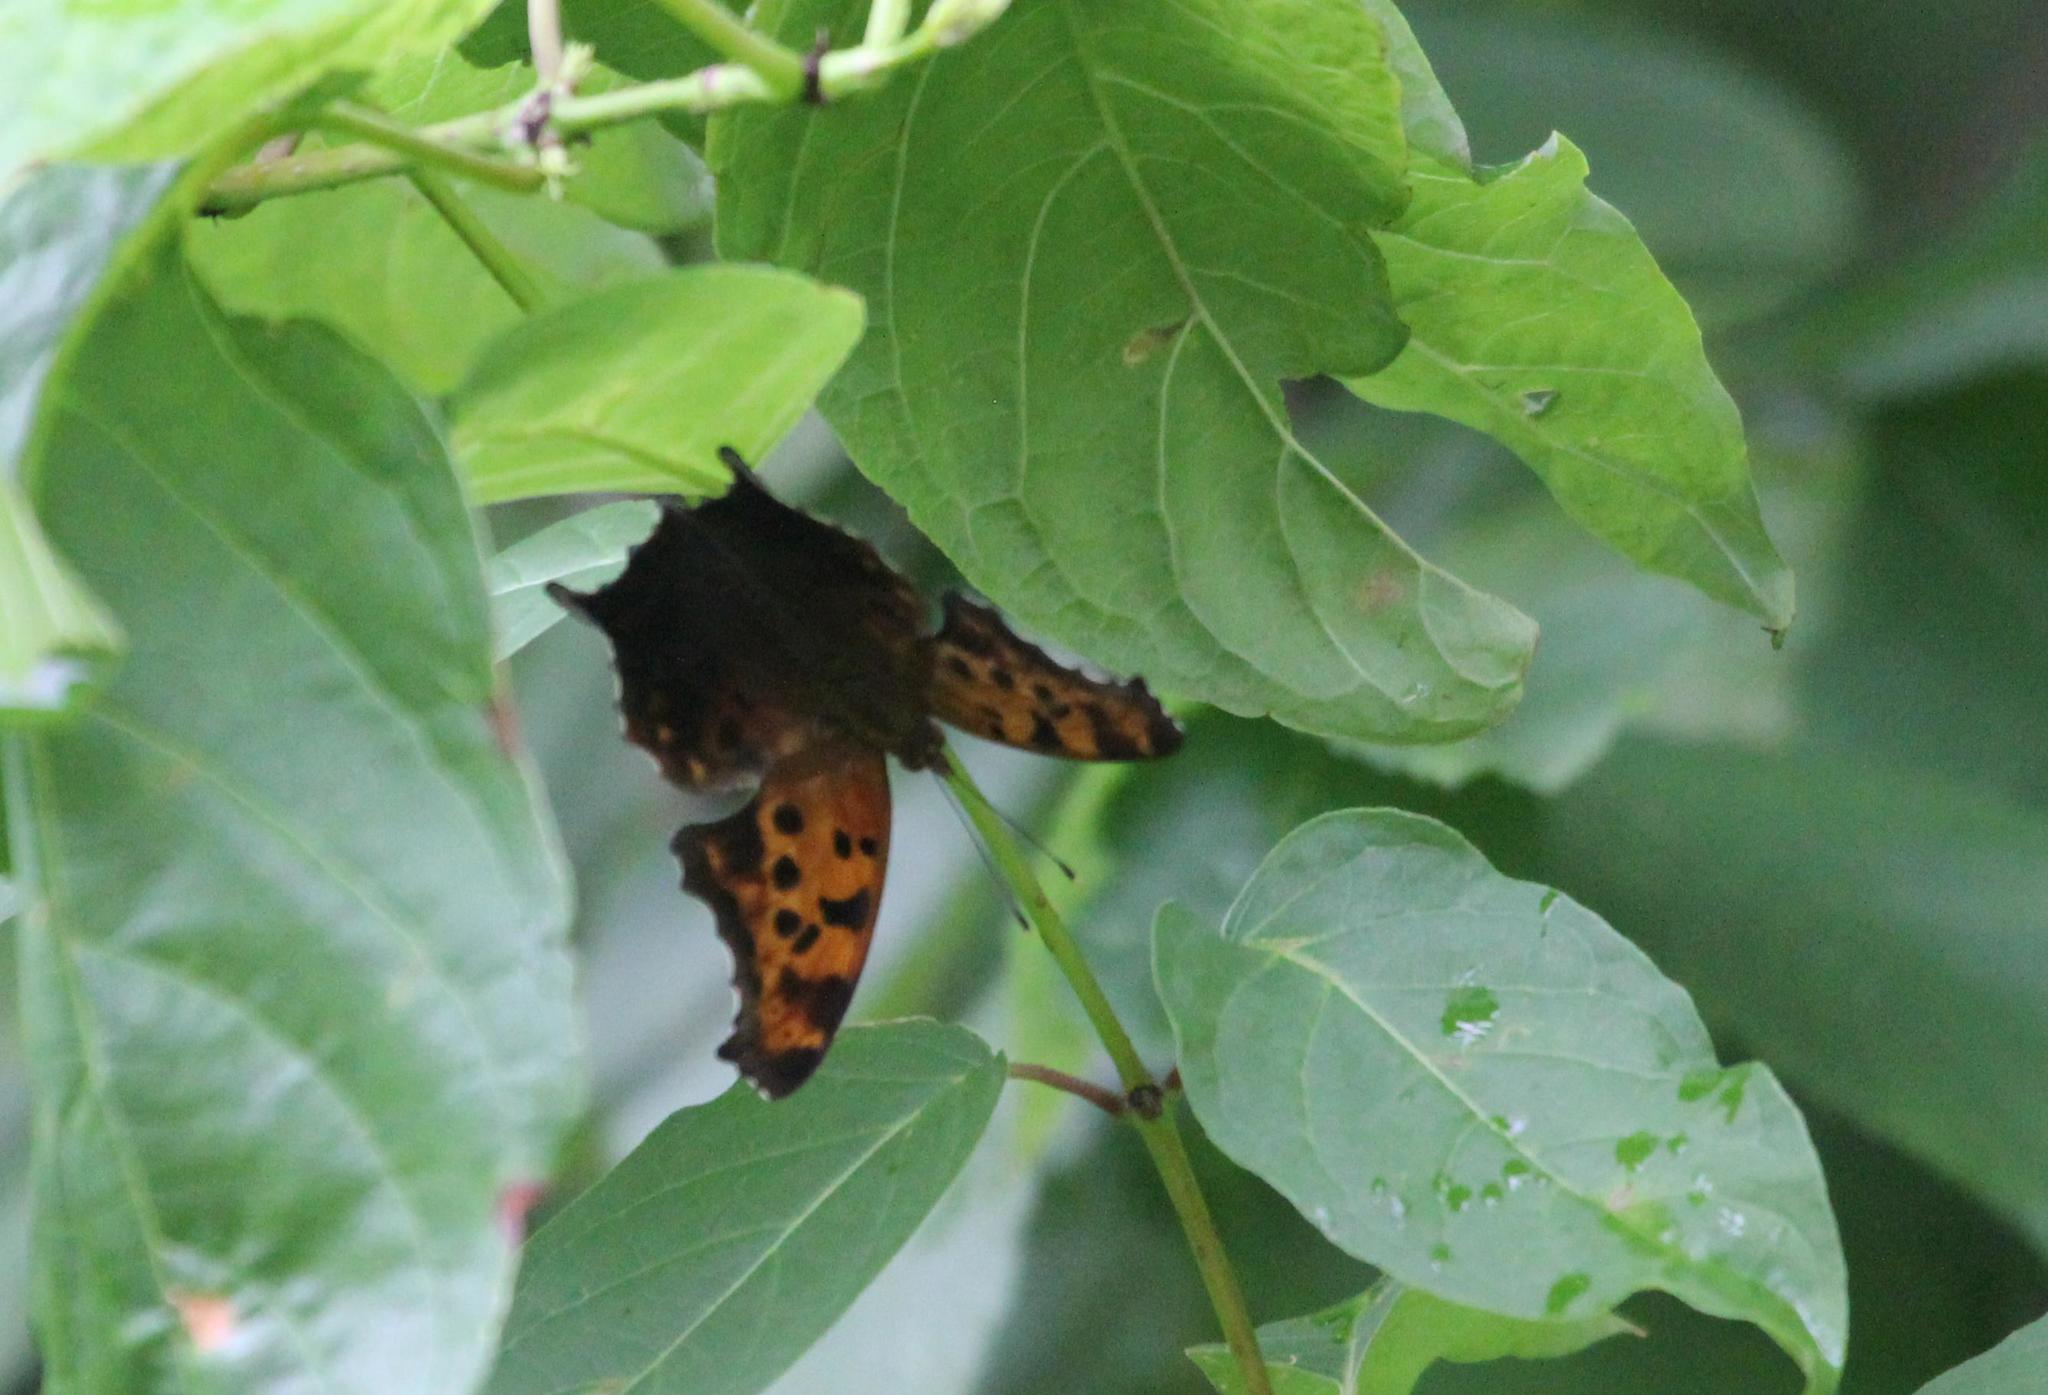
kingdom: Animalia
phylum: Arthropoda
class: Insecta
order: Lepidoptera
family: Nymphalidae
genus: Polygonia
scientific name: Polygonia interrogationis
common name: Question mark
